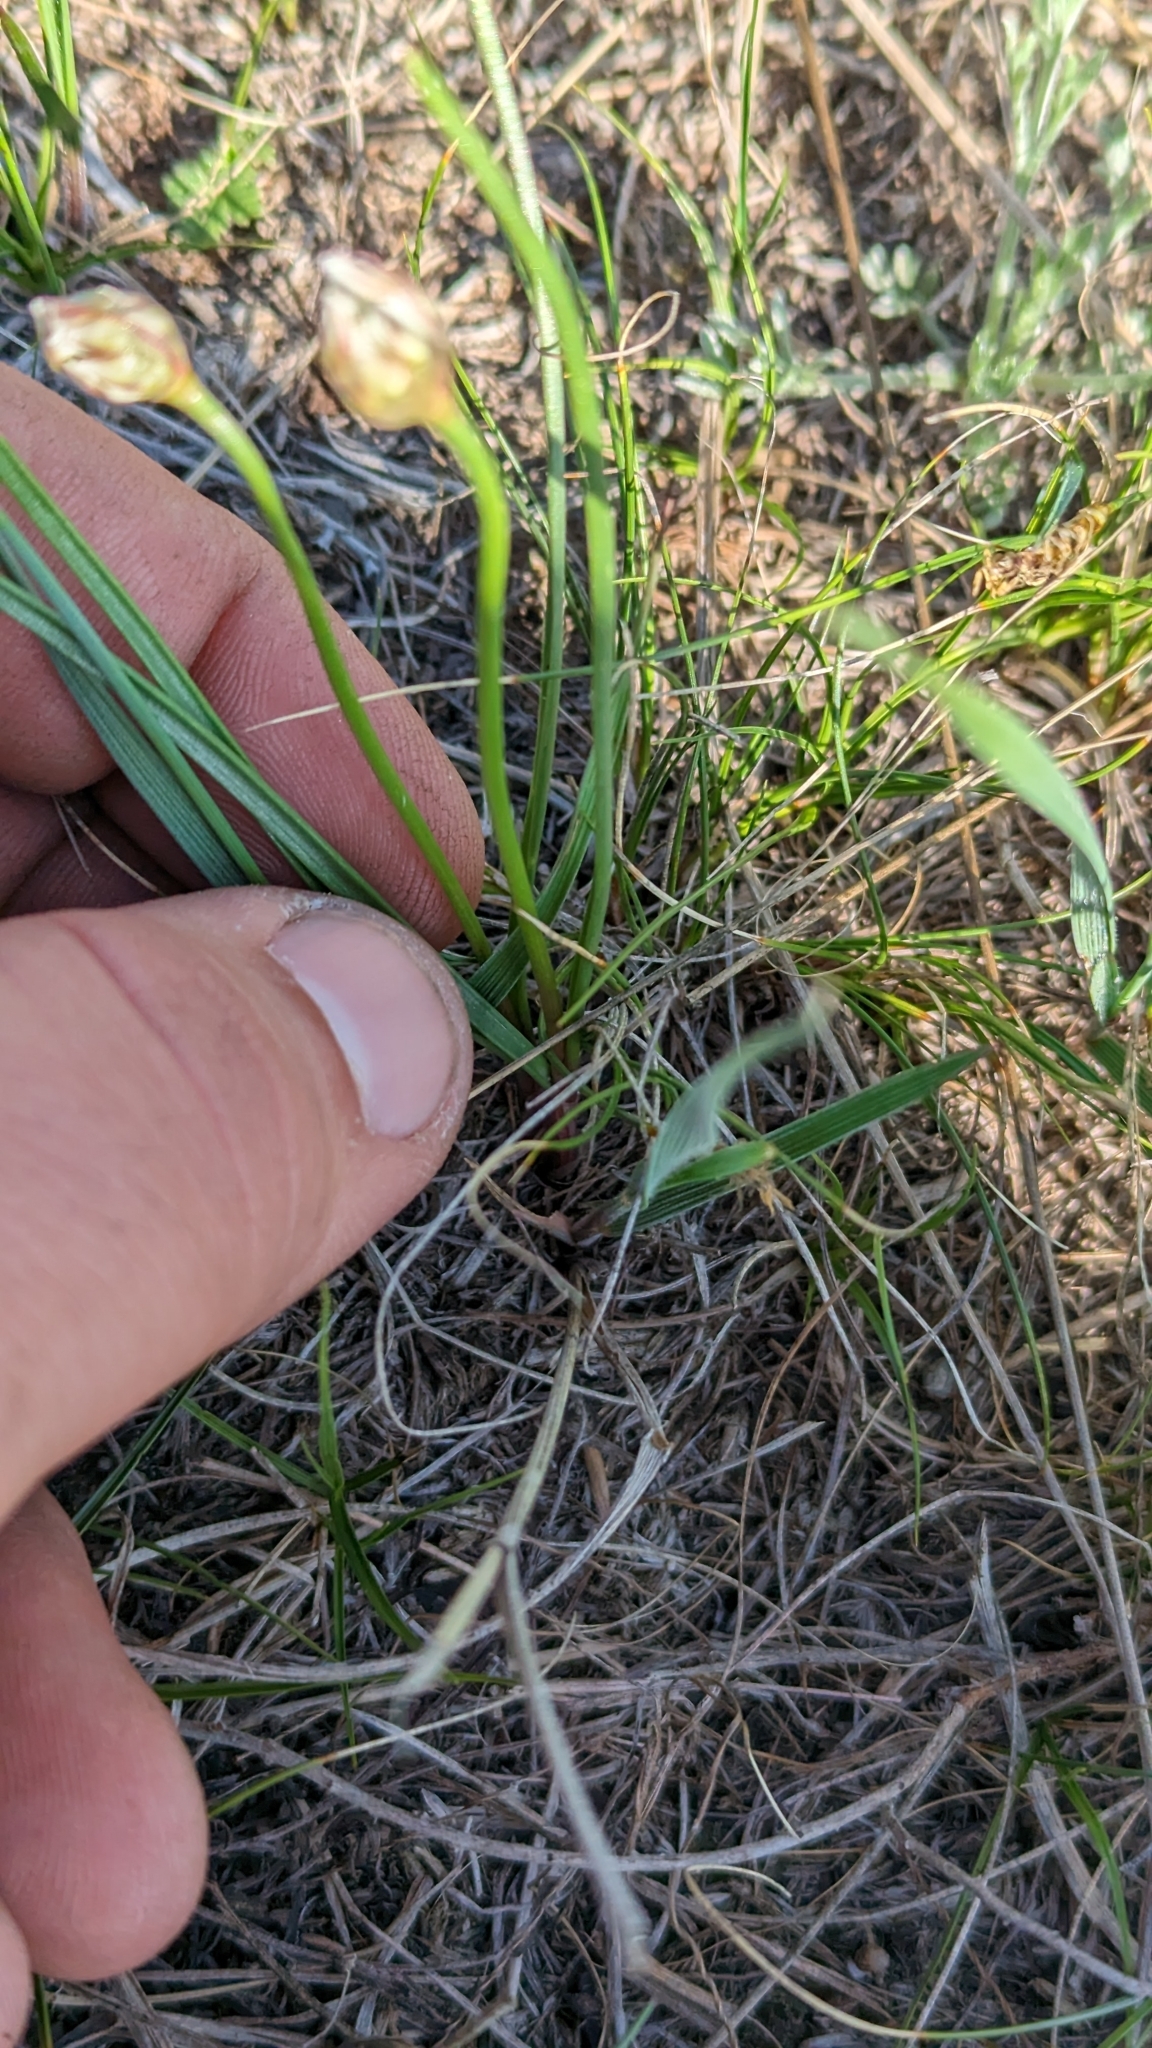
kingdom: Plantae
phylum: Tracheophyta
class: Liliopsida
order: Asparagales
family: Amaryllidaceae
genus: Allium
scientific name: Allium textile
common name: Prairie onion
